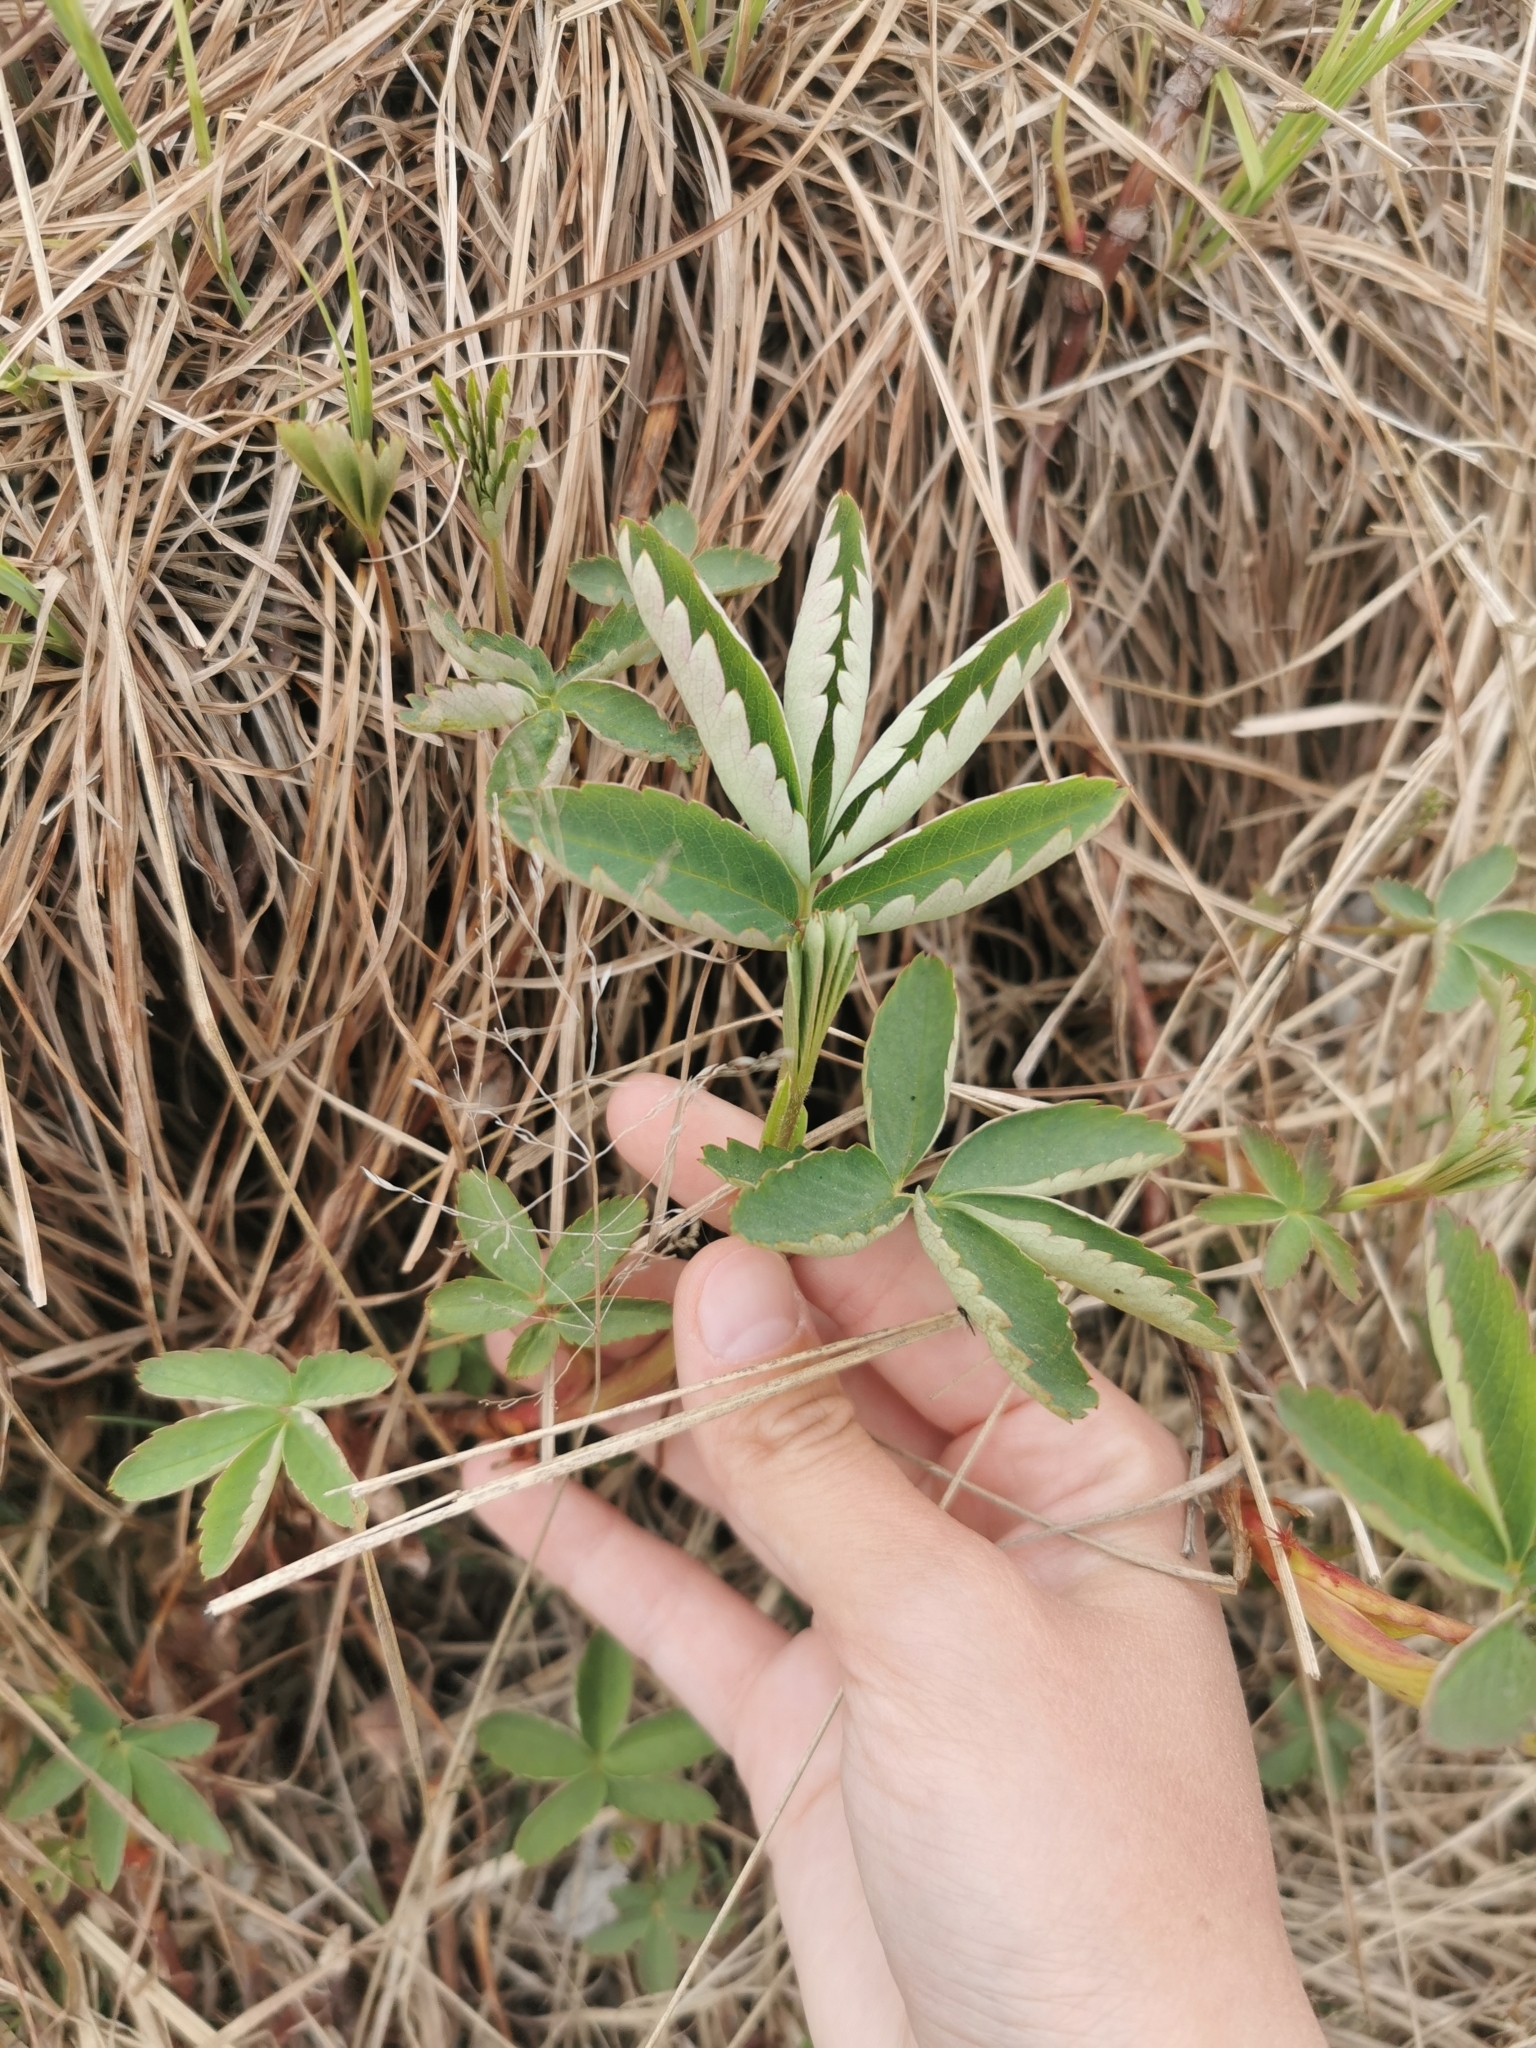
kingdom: Plantae
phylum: Tracheophyta
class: Magnoliopsida
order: Rosales
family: Rosaceae
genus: Comarum
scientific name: Comarum palustre
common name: Marsh cinquefoil
